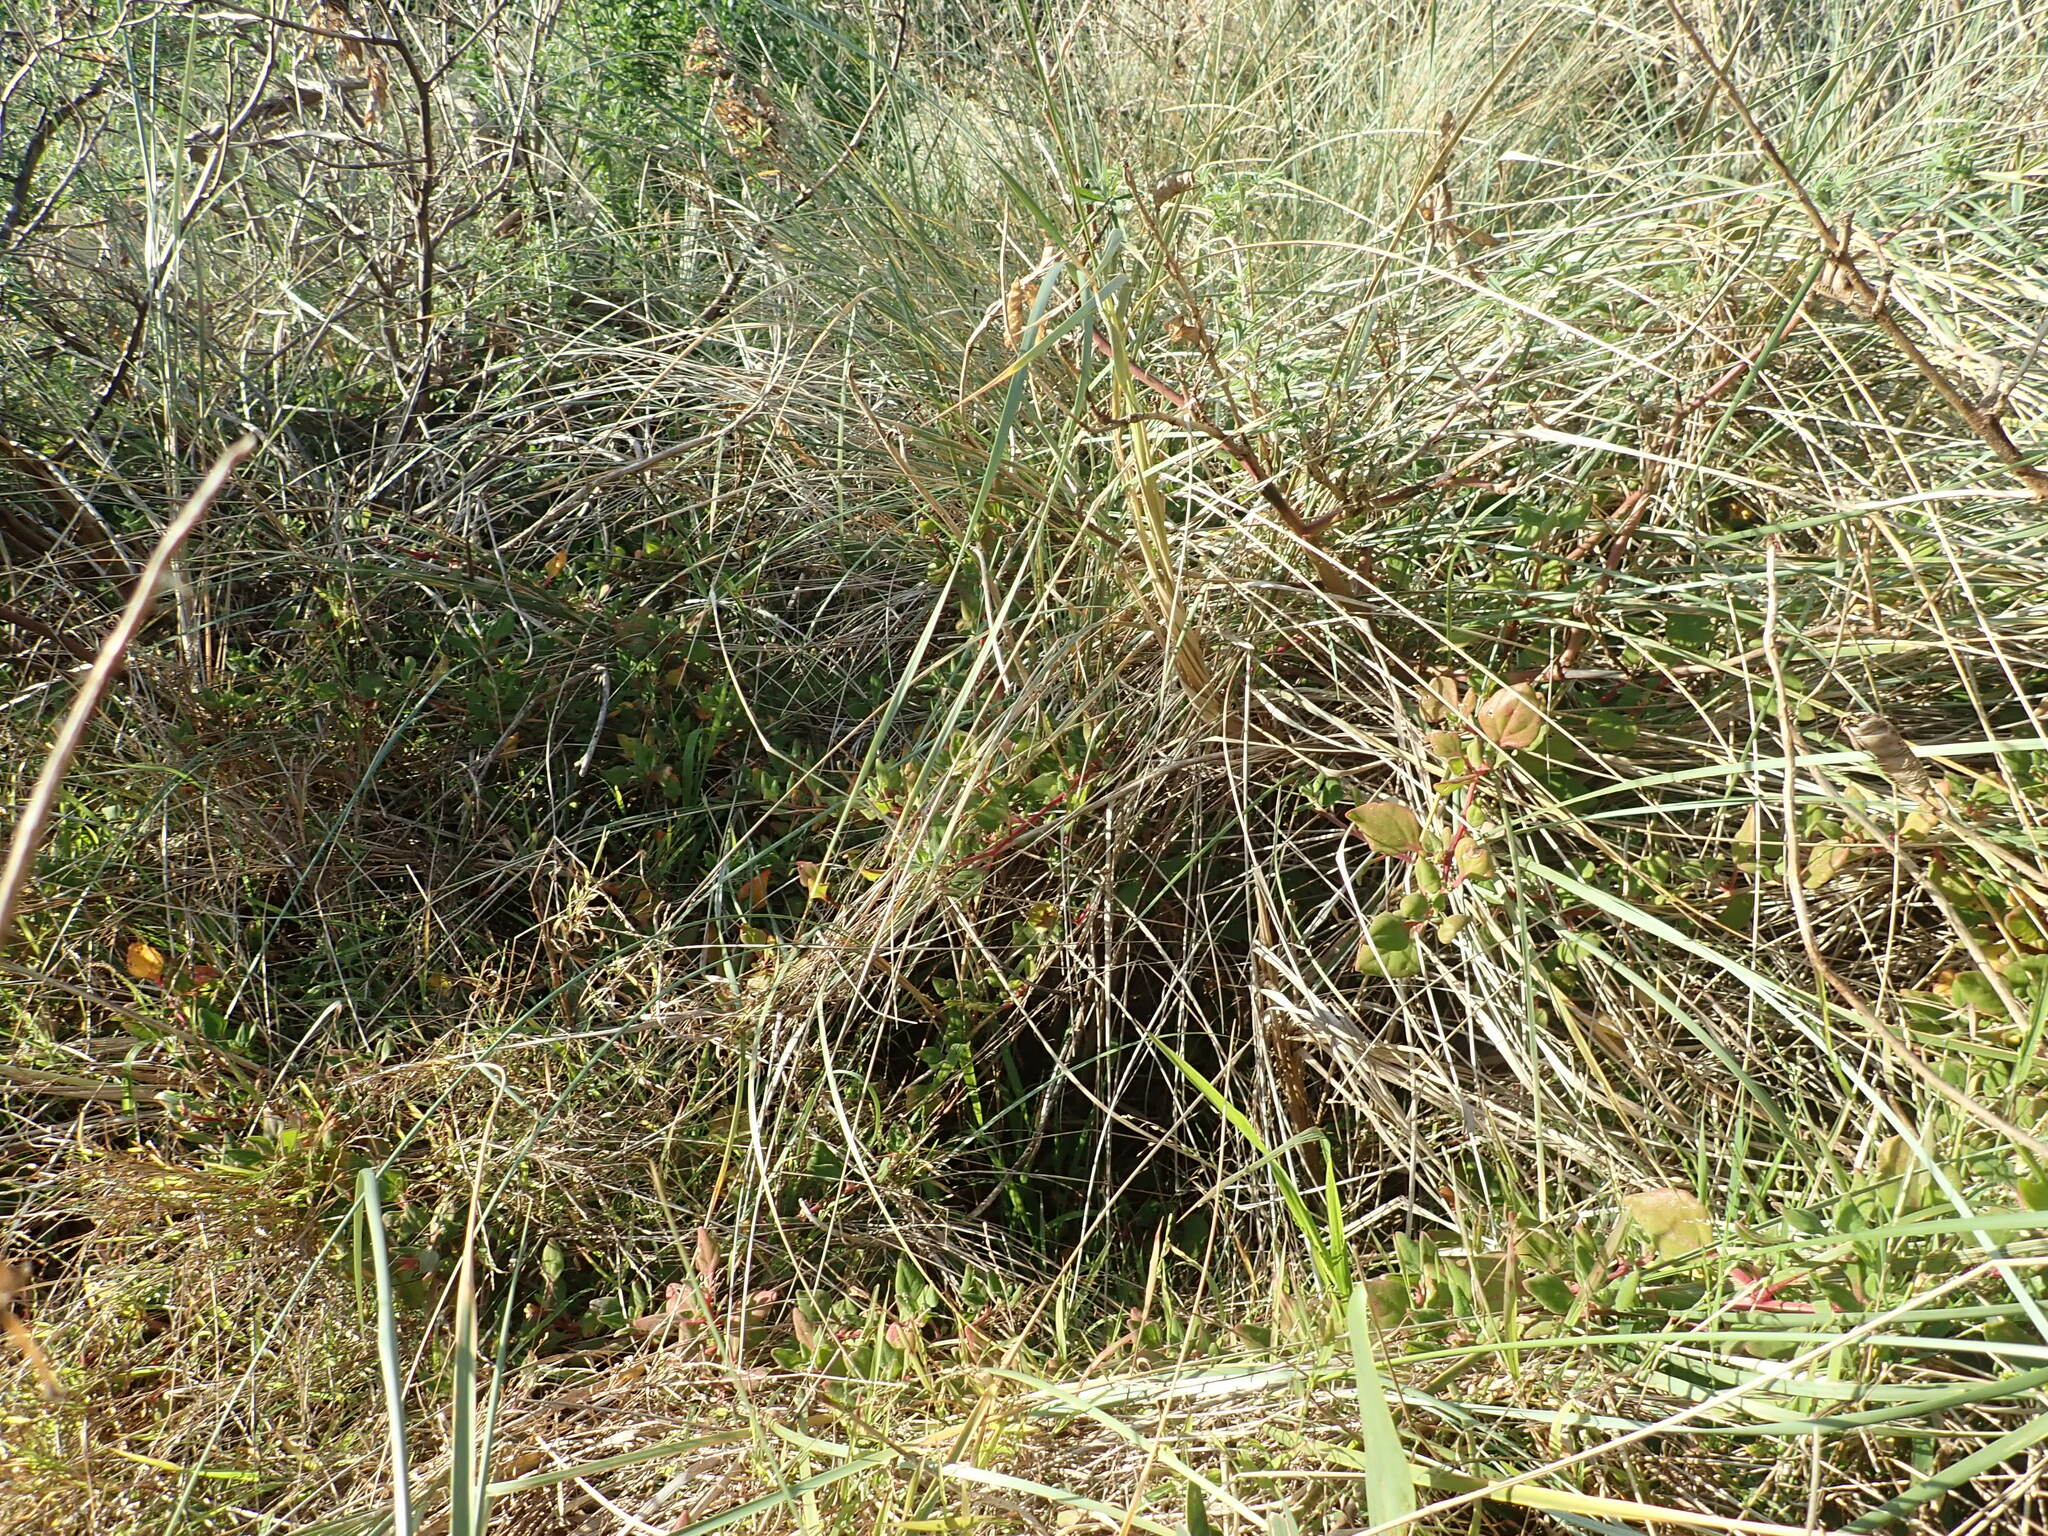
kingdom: Plantae
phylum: Tracheophyta
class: Magnoliopsida
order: Caryophyllales
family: Aizoaceae
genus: Tetragonia
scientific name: Tetragonia implexicoma
